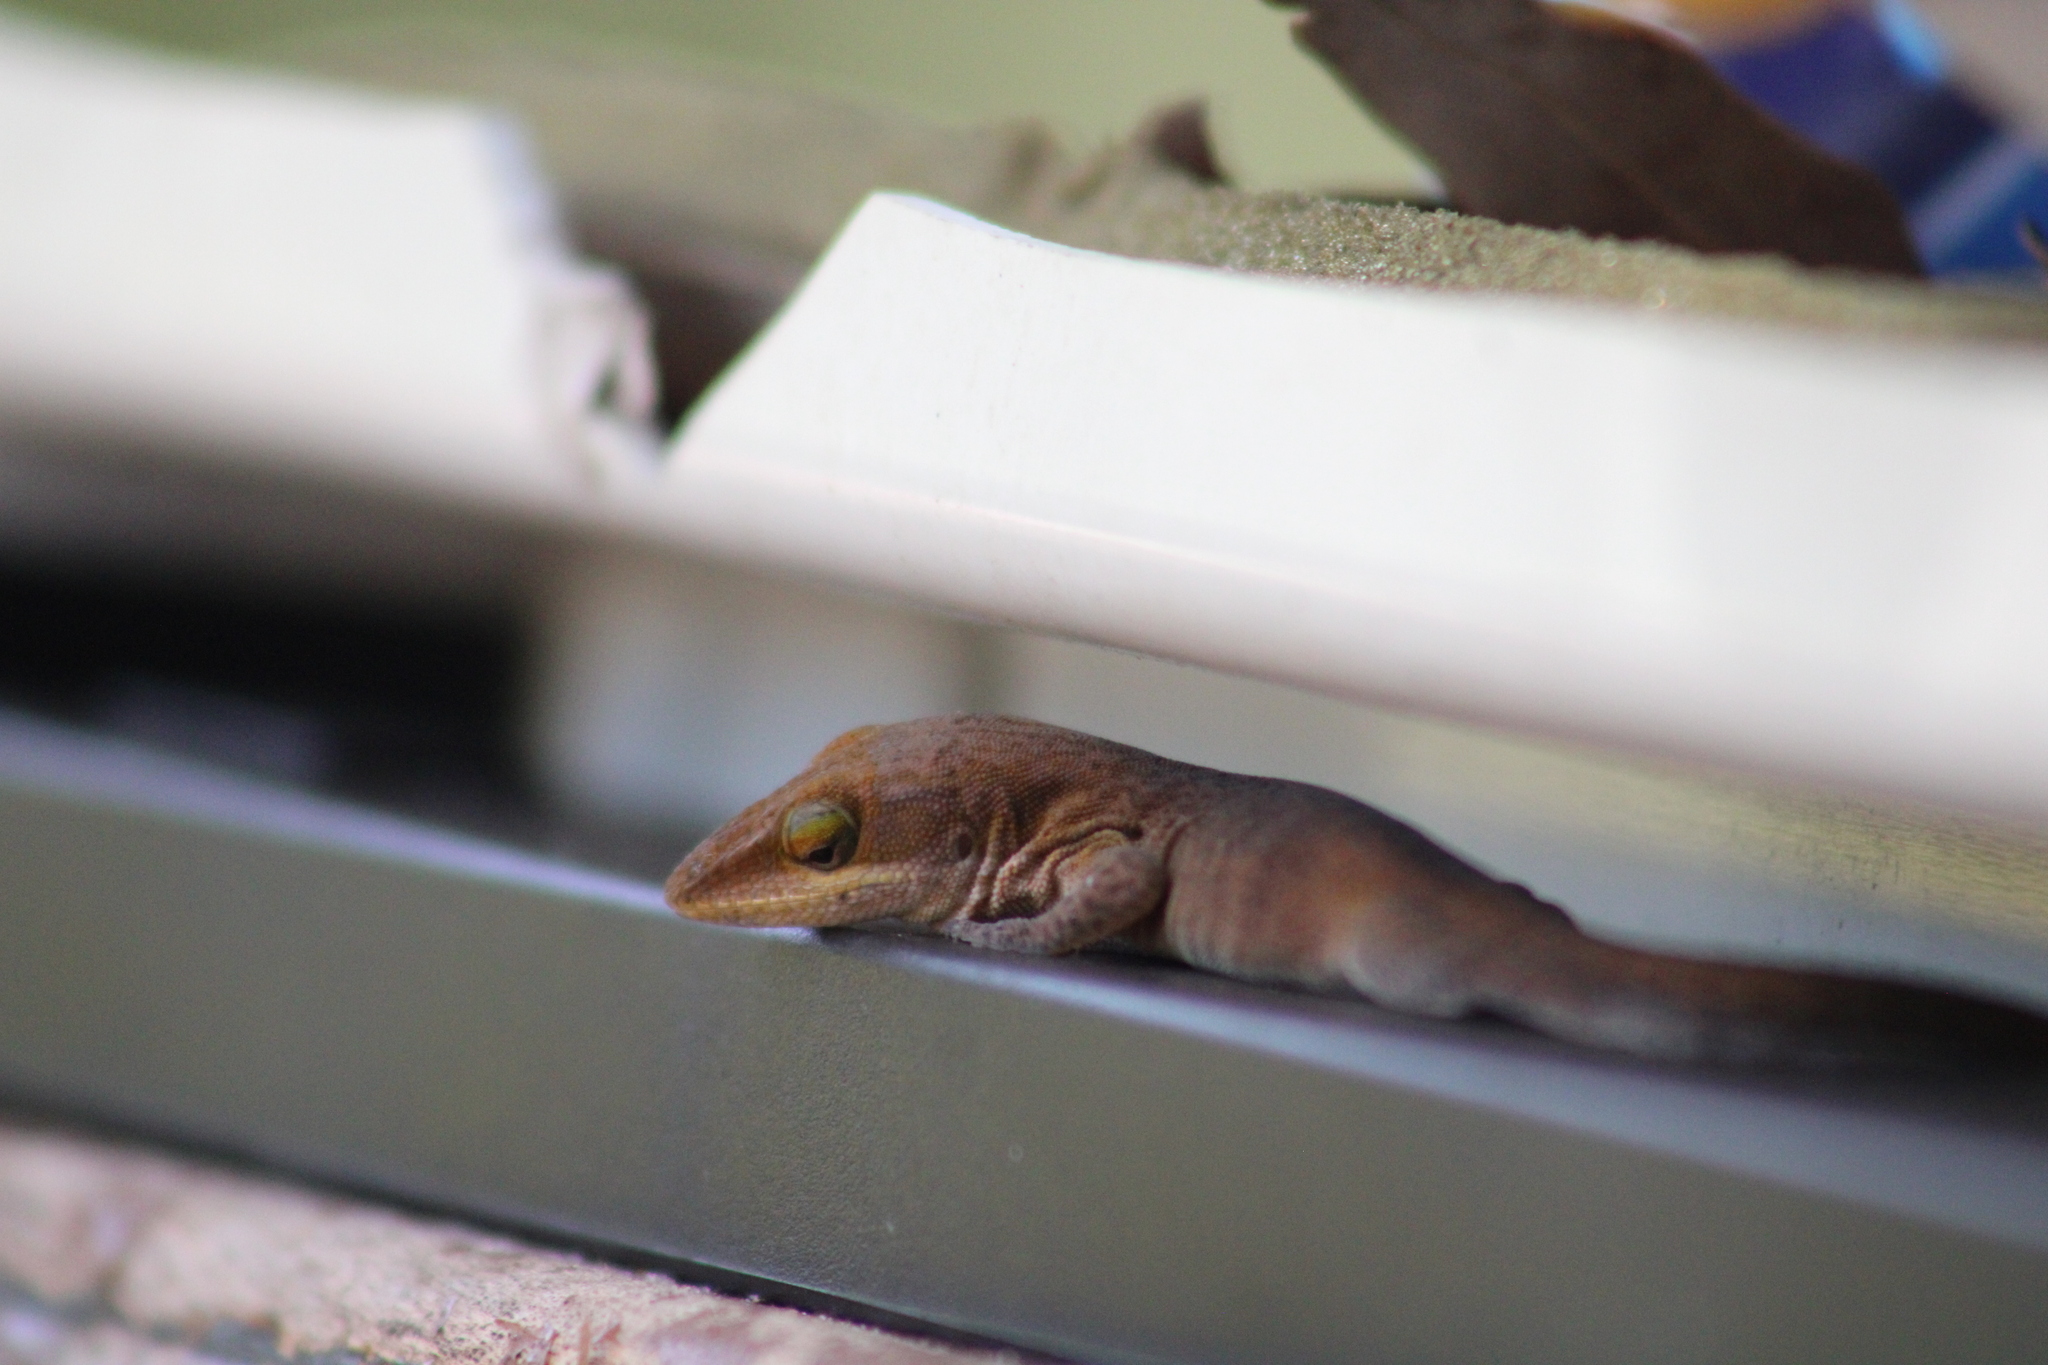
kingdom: Animalia
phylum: Chordata
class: Squamata
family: Dactyloidae
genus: Anolis
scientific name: Anolis carolinensis
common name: Green anole
